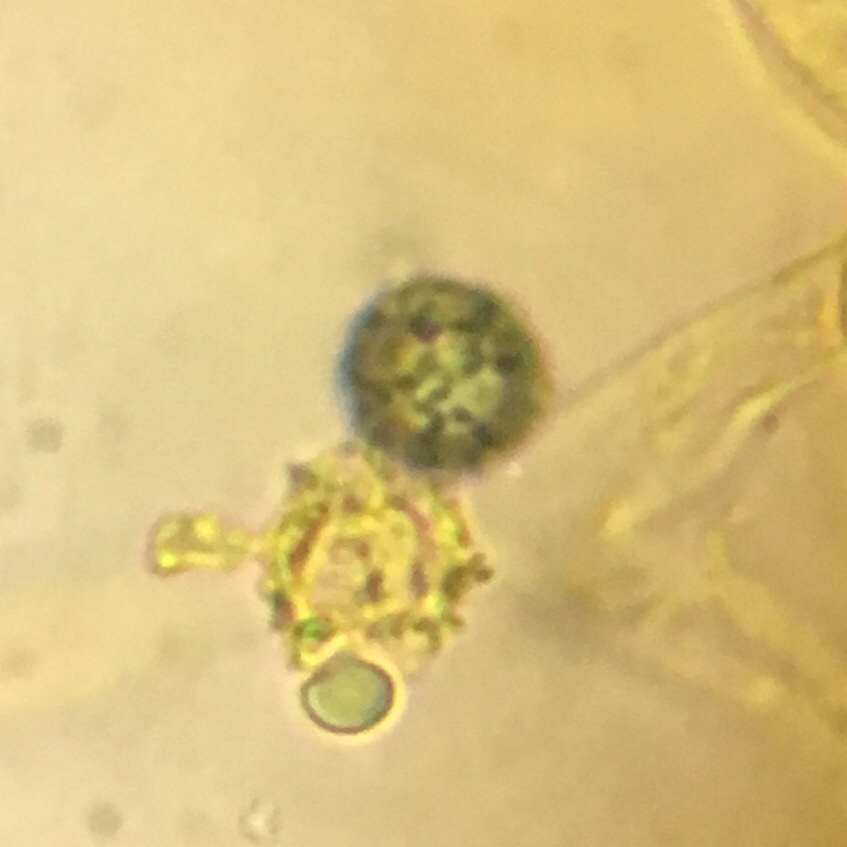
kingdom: Fungi
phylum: Basidiomycota
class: Agaricomycetes
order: Russulales
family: Russulaceae
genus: Russula
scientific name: Russula aquosa
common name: Red swamp brittlegill
